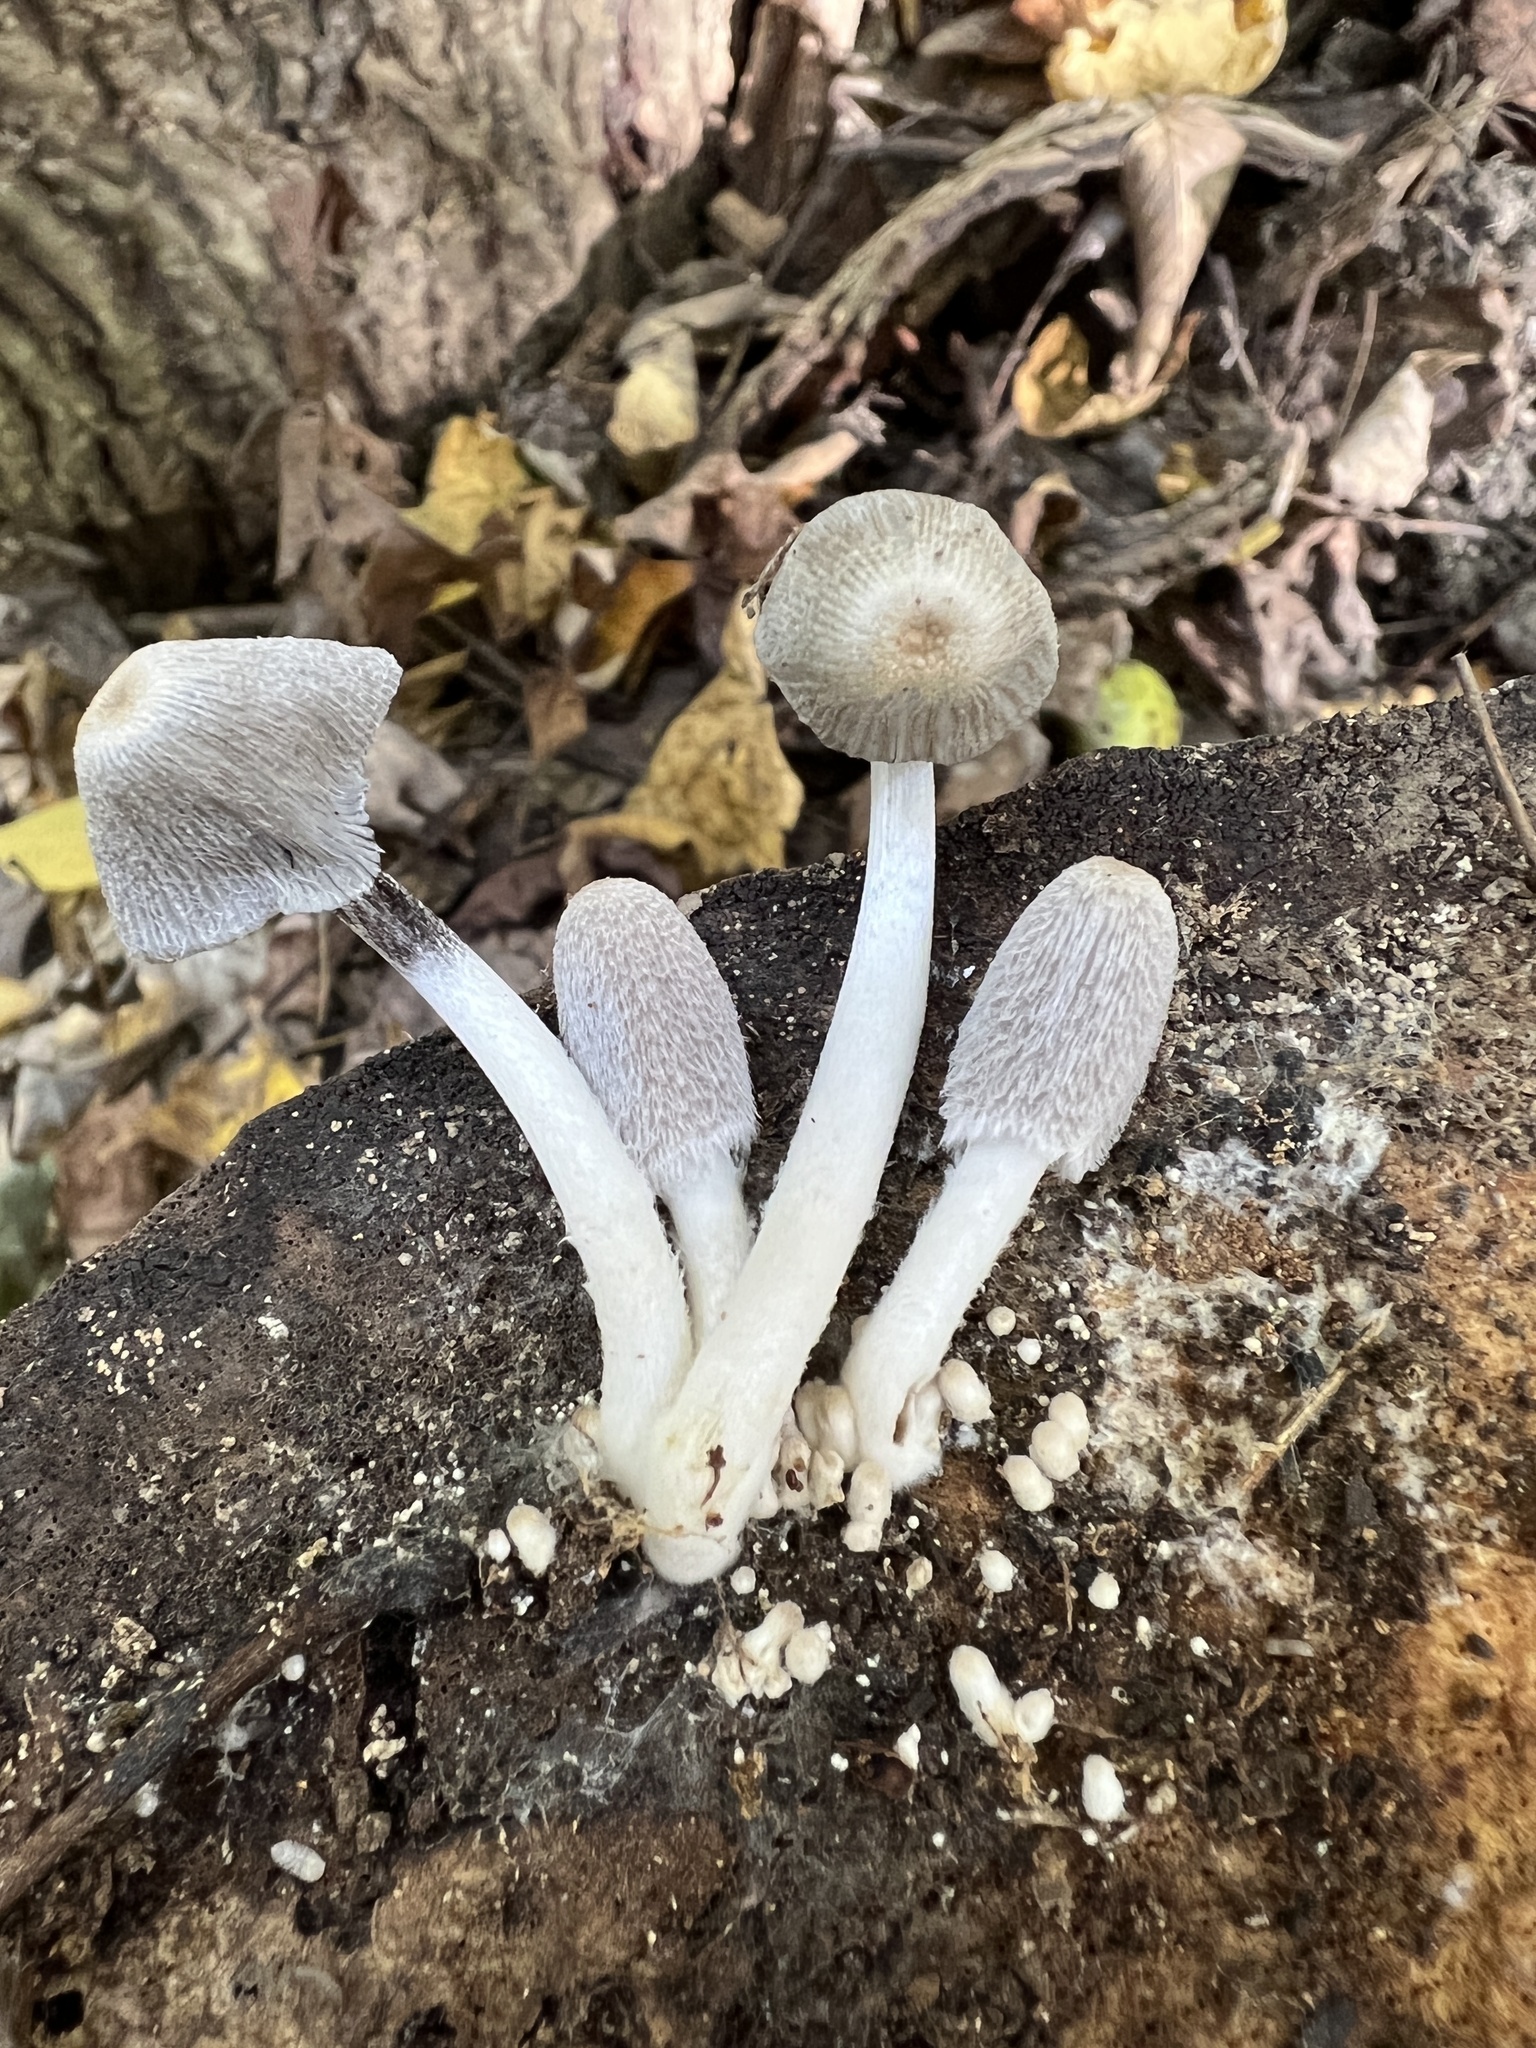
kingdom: Fungi
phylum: Basidiomycota
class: Agaricomycetes
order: Agaricales
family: Psathyrellaceae
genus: Coprinopsis
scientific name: Coprinopsis lagopus
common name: Hare'sfoot inkcap
